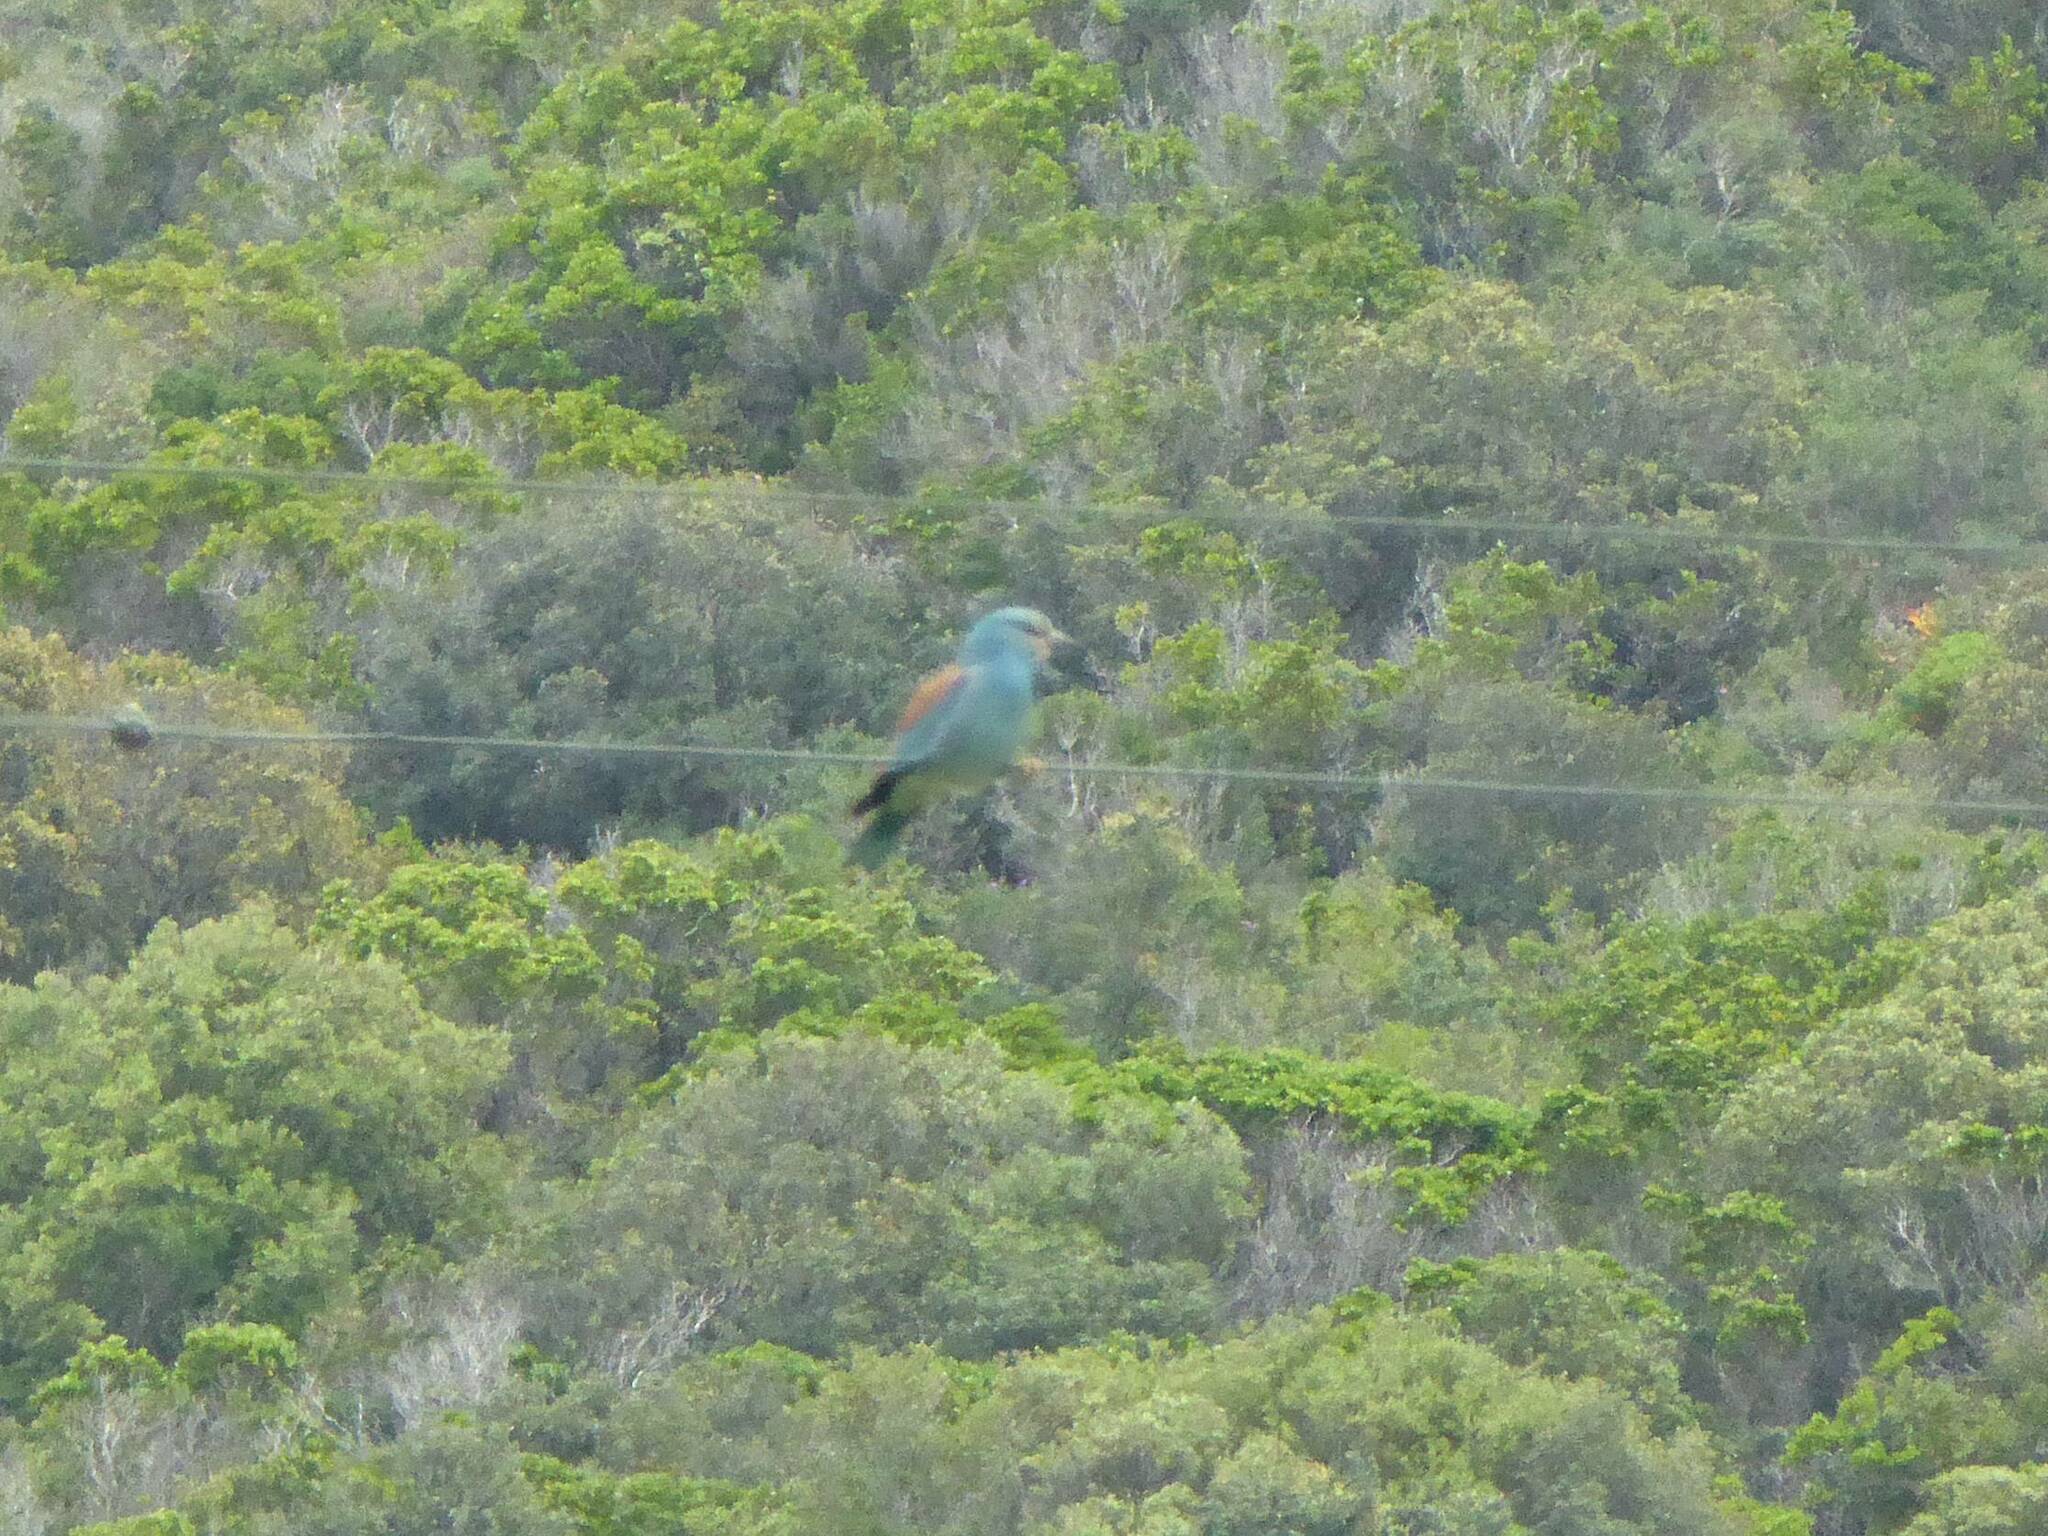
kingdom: Animalia
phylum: Chordata
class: Aves
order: Coraciiformes
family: Coraciidae
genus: Coracias
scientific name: Coracias garrulus
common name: European roller
